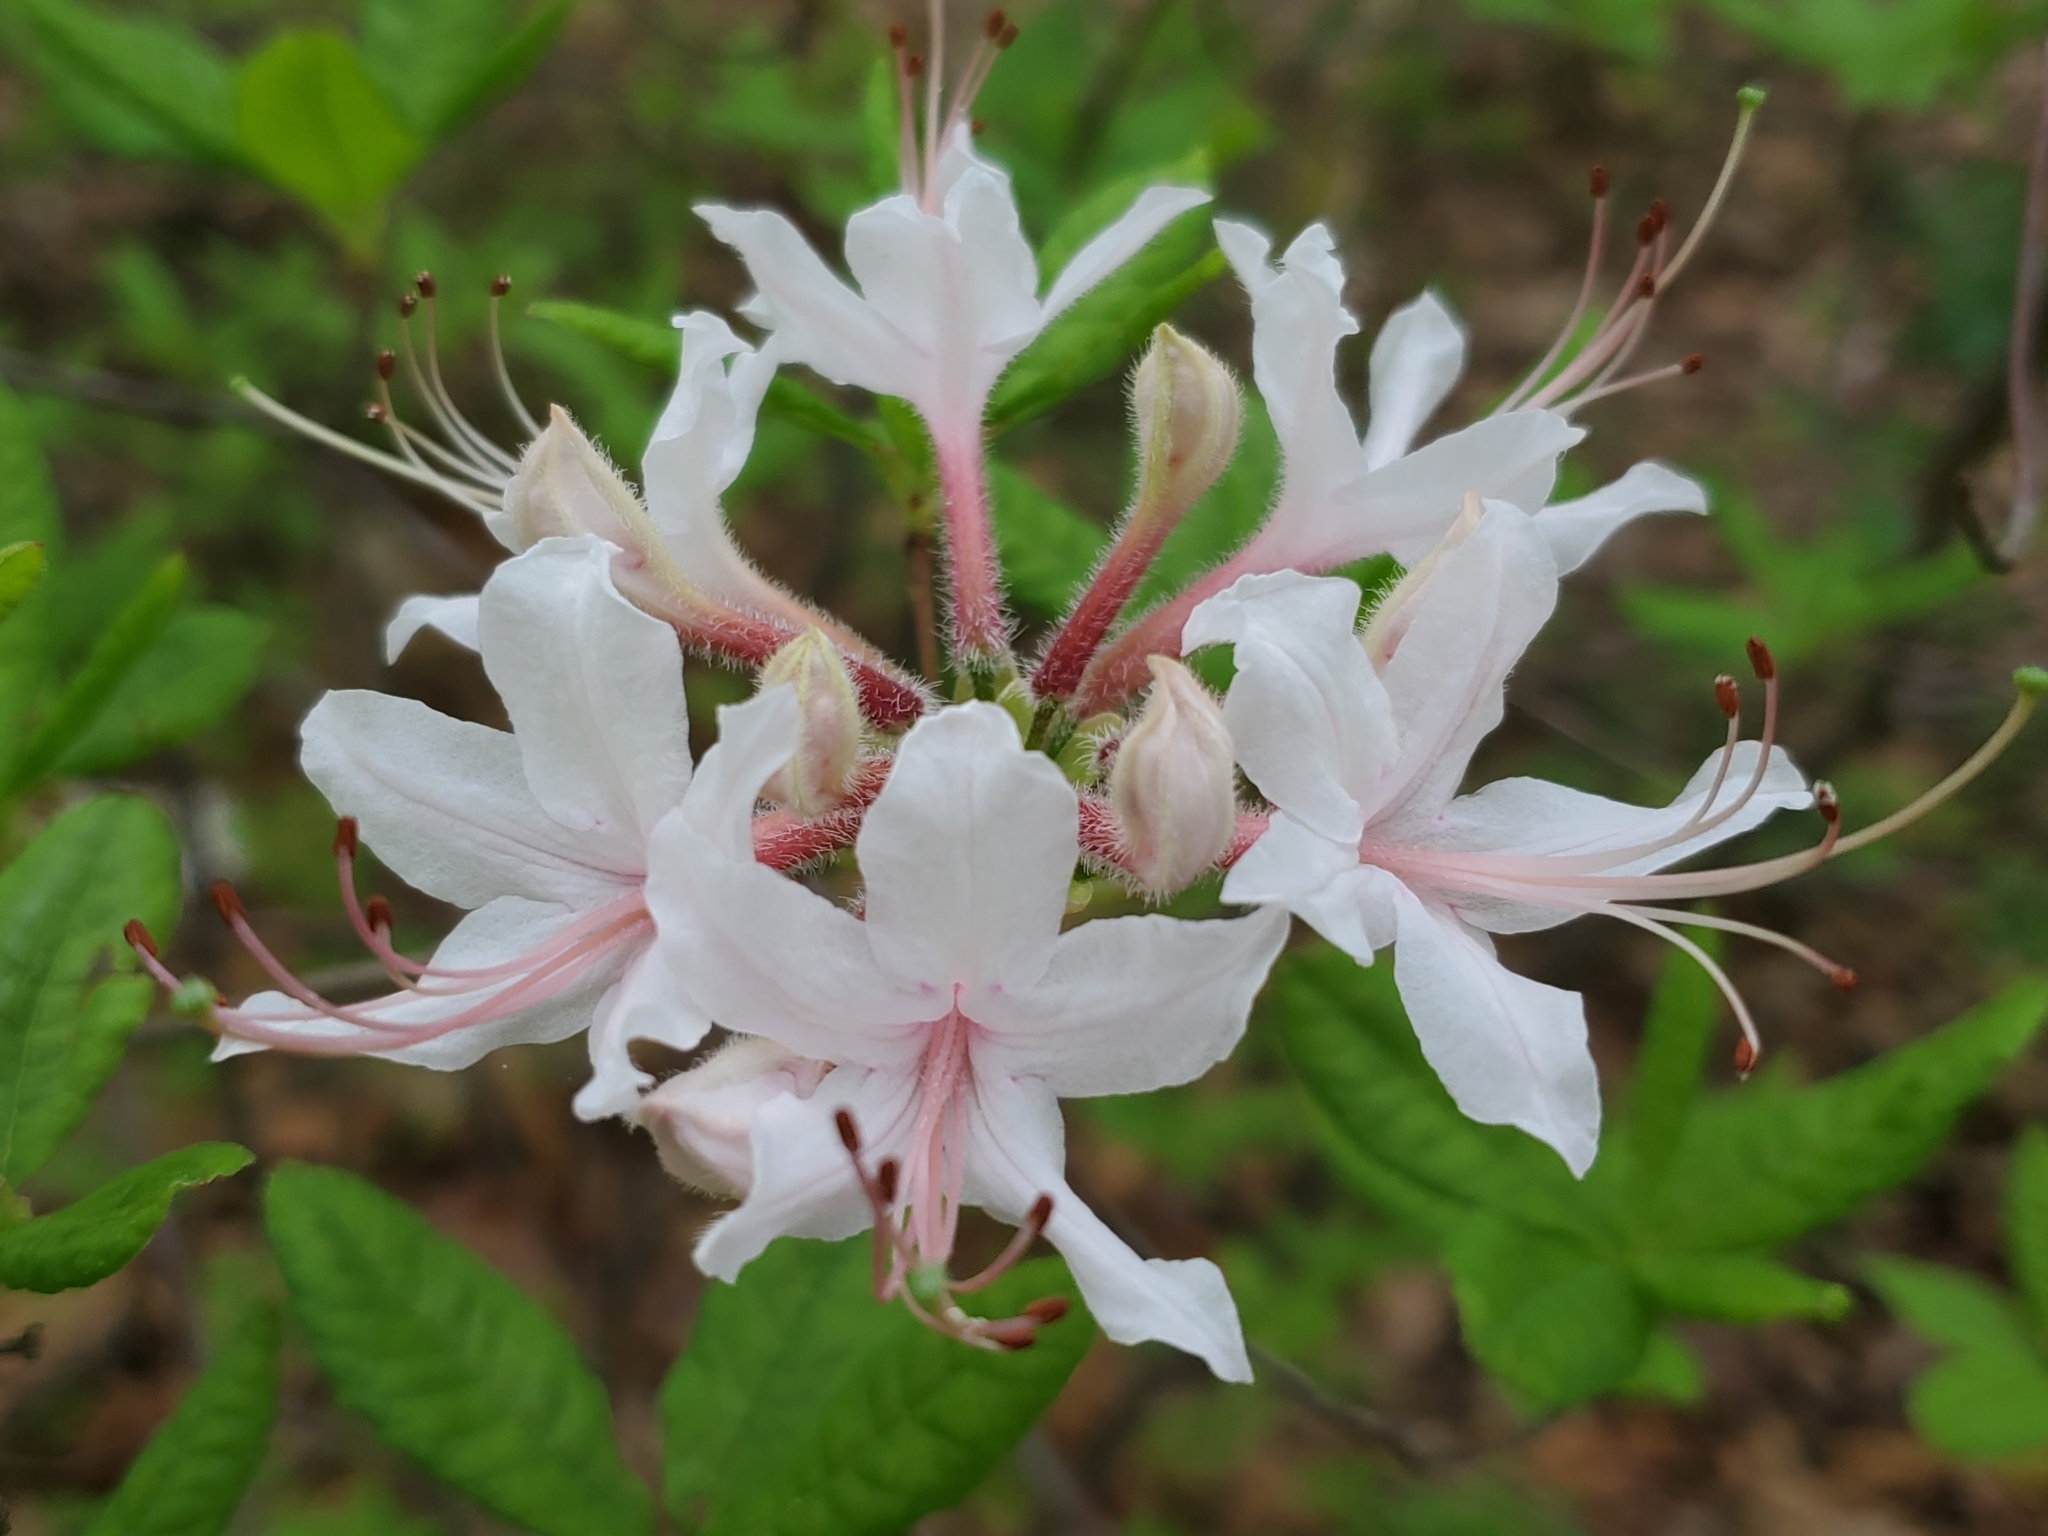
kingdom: Plantae
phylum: Tracheophyta
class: Magnoliopsida
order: Ericales
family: Ericaceae
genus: Rhododendron
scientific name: Rhododendron periclymenoides
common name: Election-pink
